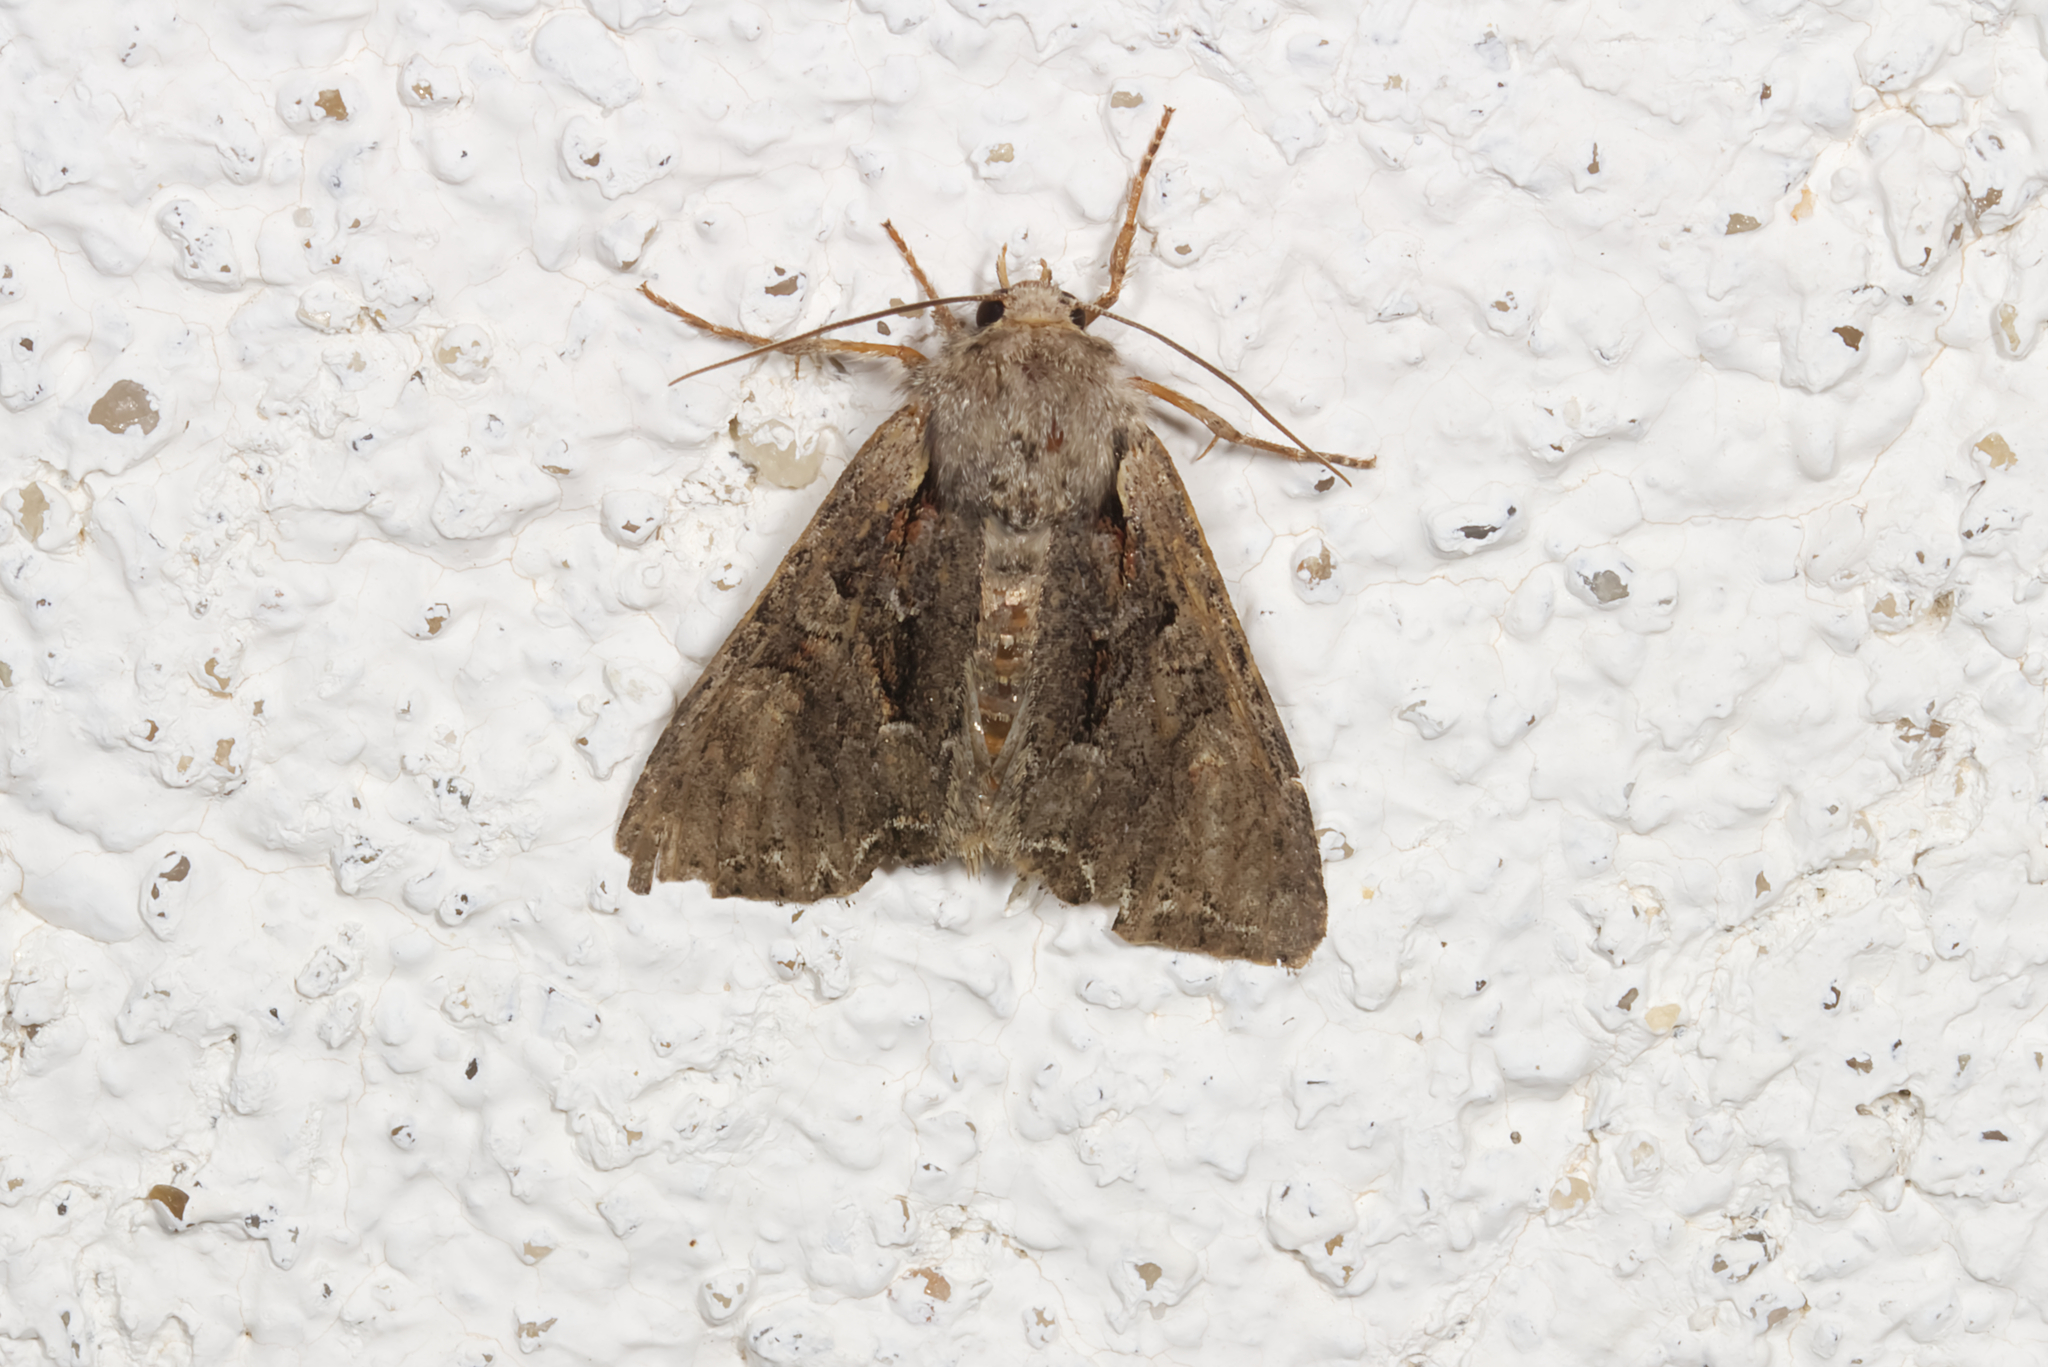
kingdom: Animalia
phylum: Arthropoda
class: Insecta
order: Lepidoptera
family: Noctuidae
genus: Lacanobia
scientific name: Lacanobia thalassina
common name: Pale-shouldered brocade
